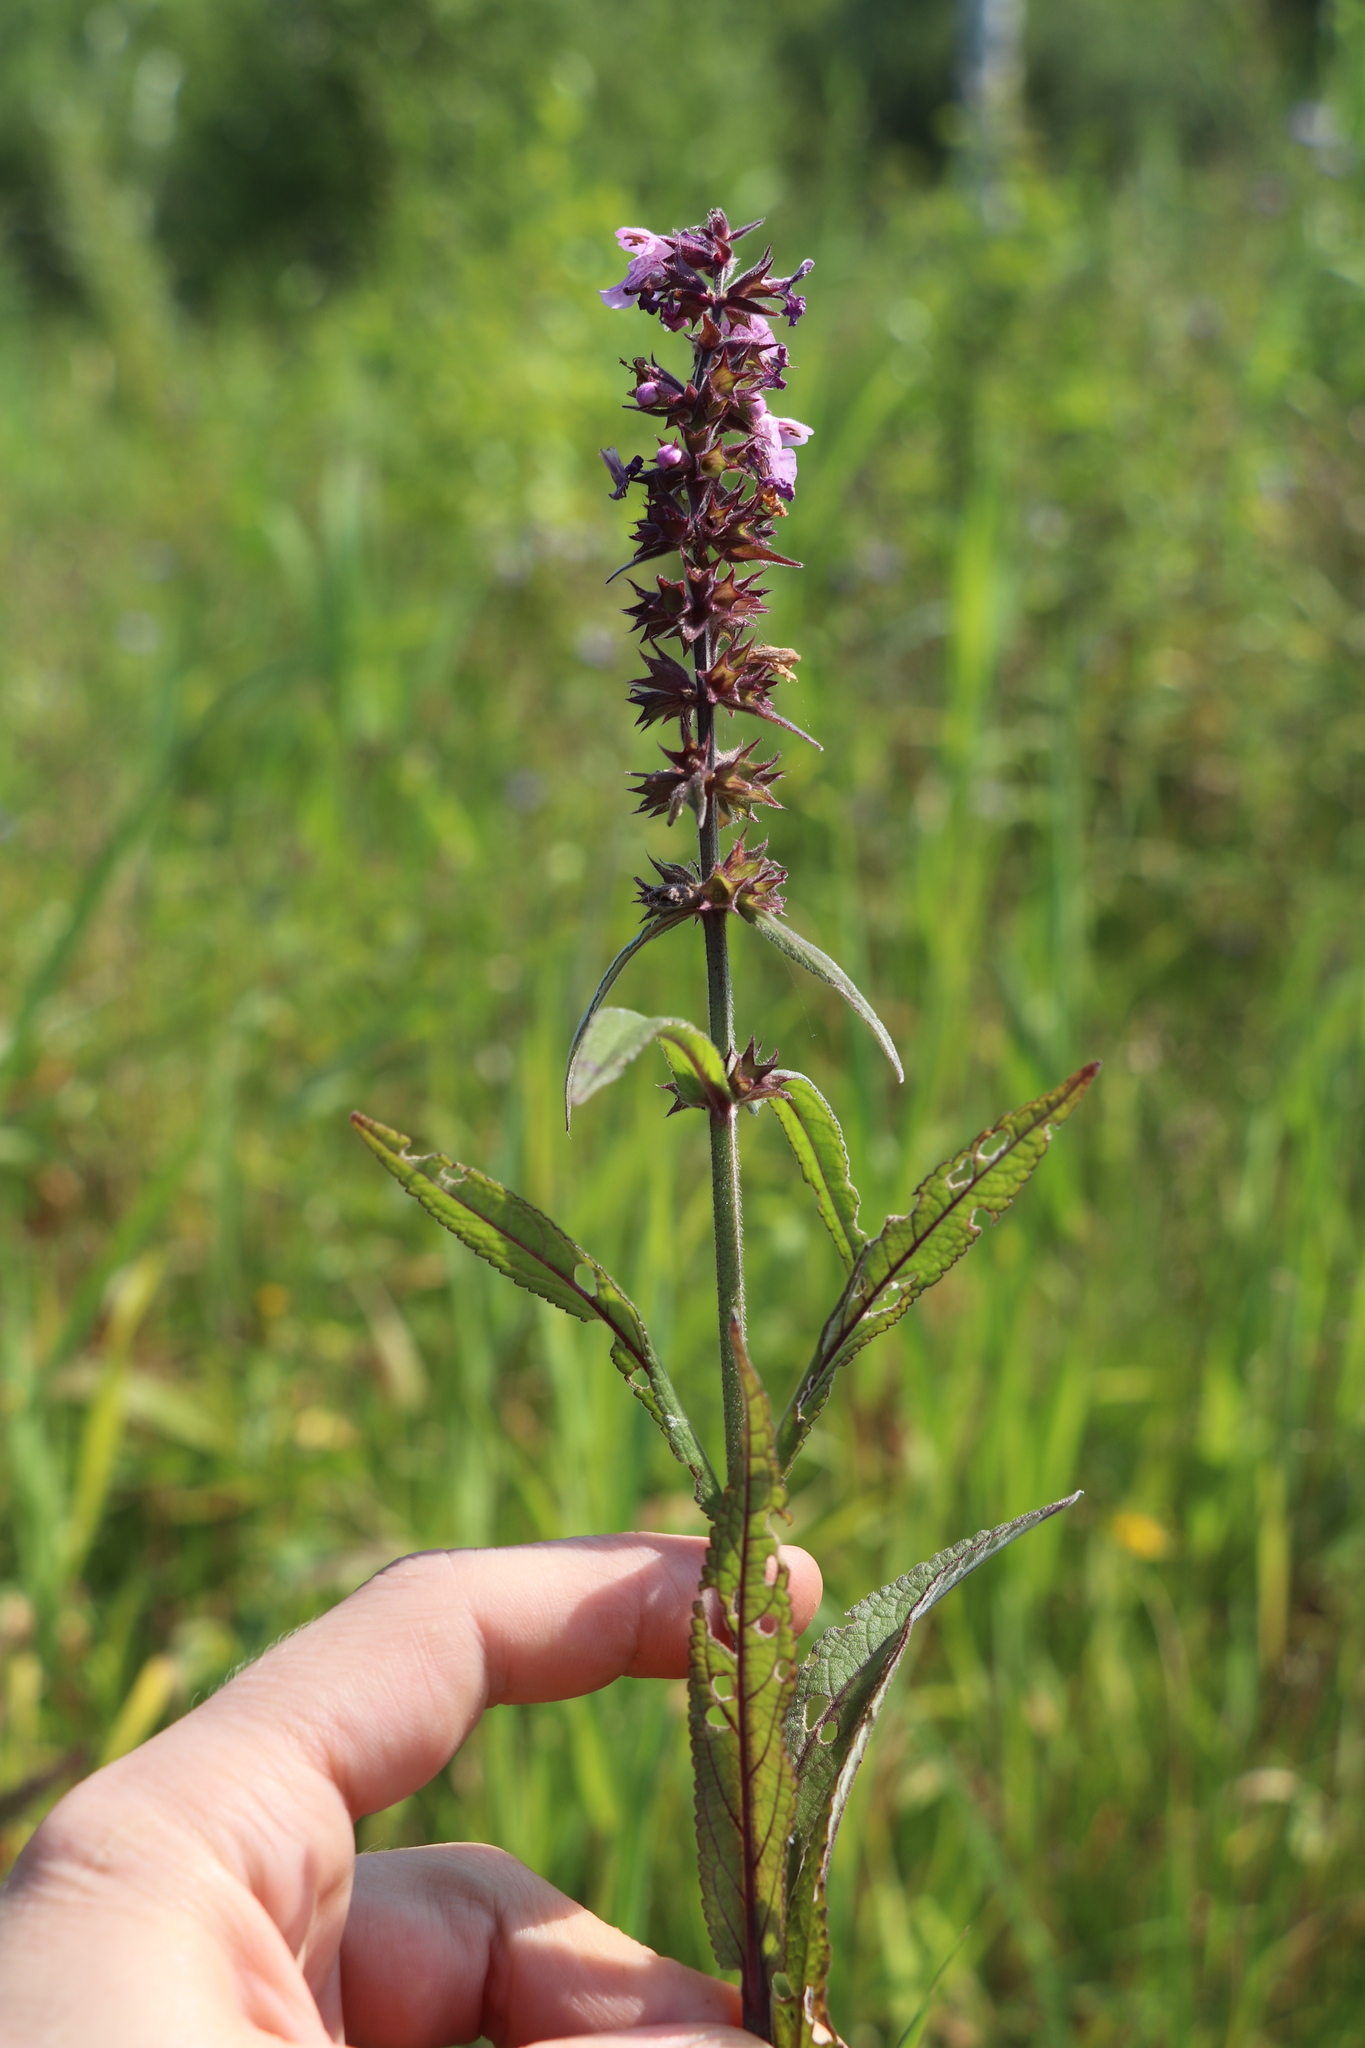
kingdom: Plantae
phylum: Tracheophyta
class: Magnoliopsida
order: Lamiales
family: Lamiaceae
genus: Stachys
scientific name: Stachys palustris
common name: Marsh woundwort
